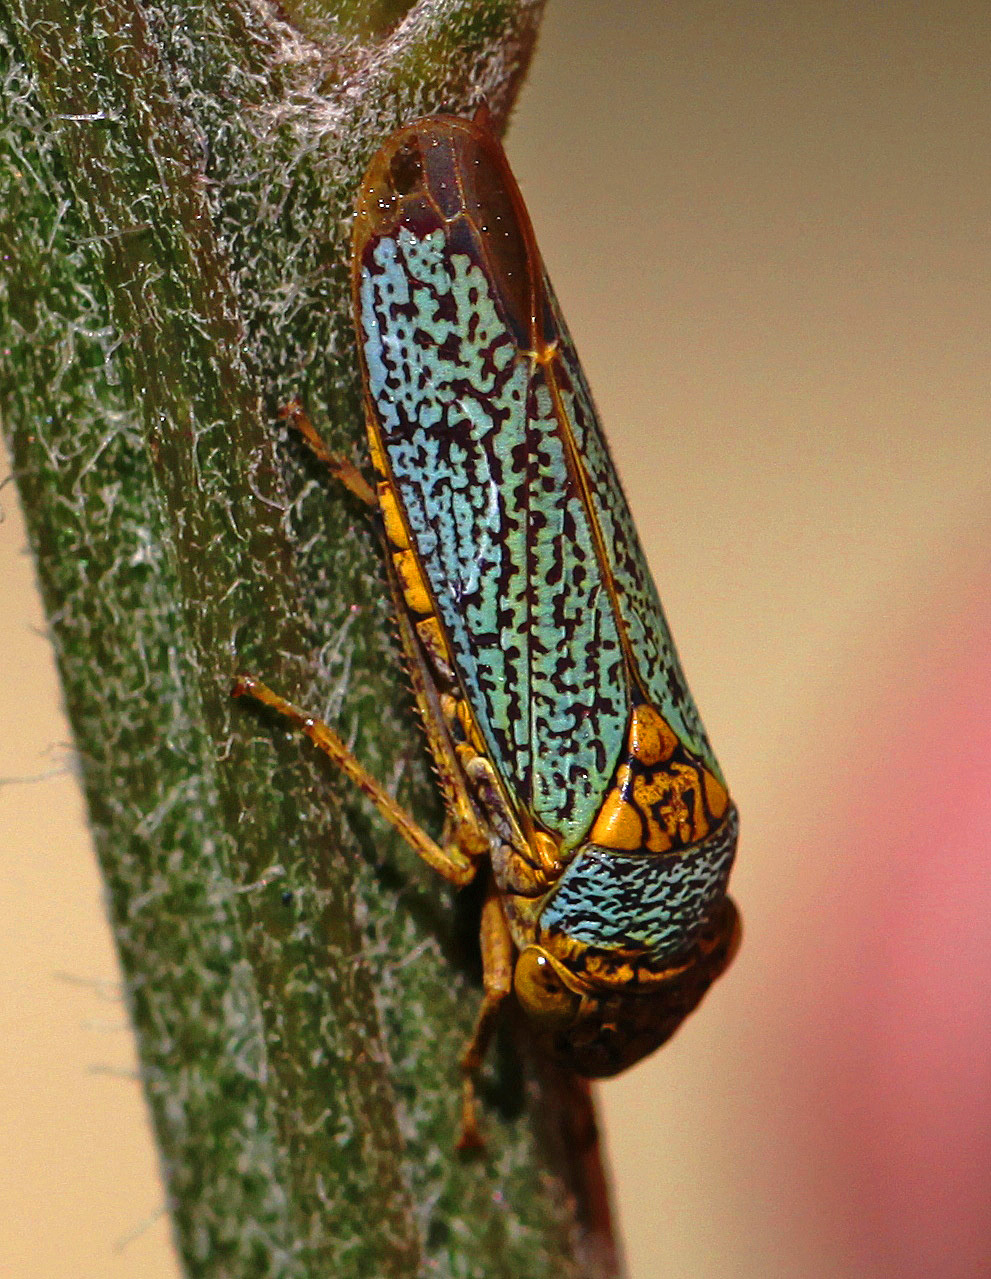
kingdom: Animalia
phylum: Arthropoda
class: Insecta
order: Hemiptera
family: Cicadellidae
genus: Oncometopia
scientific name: Oncometopia orbona
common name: Broad-headed sharpshooter
